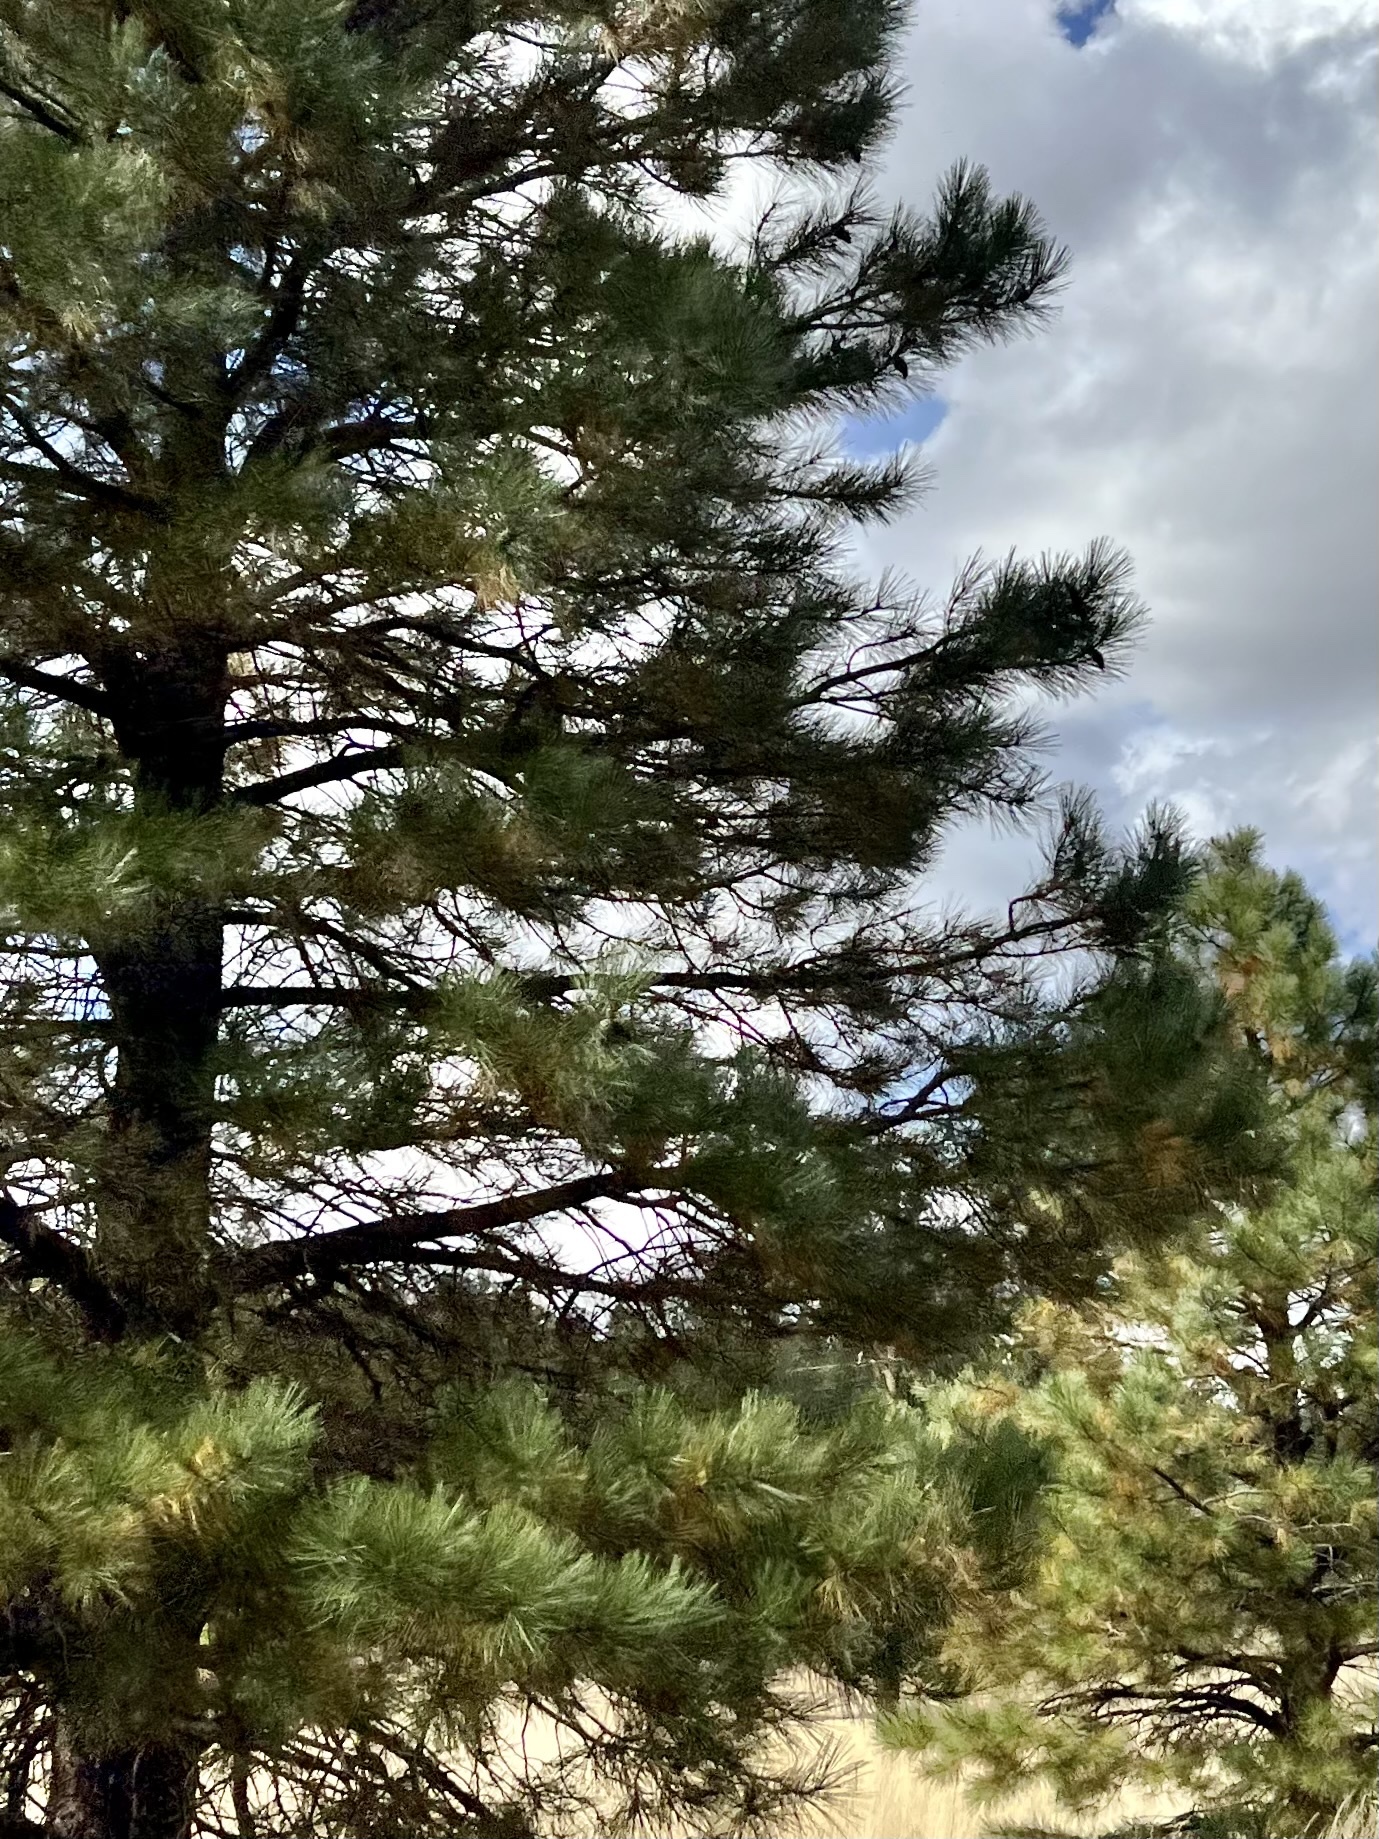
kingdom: Plantae
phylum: Tracheophyta
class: Pinopsida
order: Pinales
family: Pinaceae
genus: Pinus
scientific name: Pinus ponderosa
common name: Western yellow-pine
